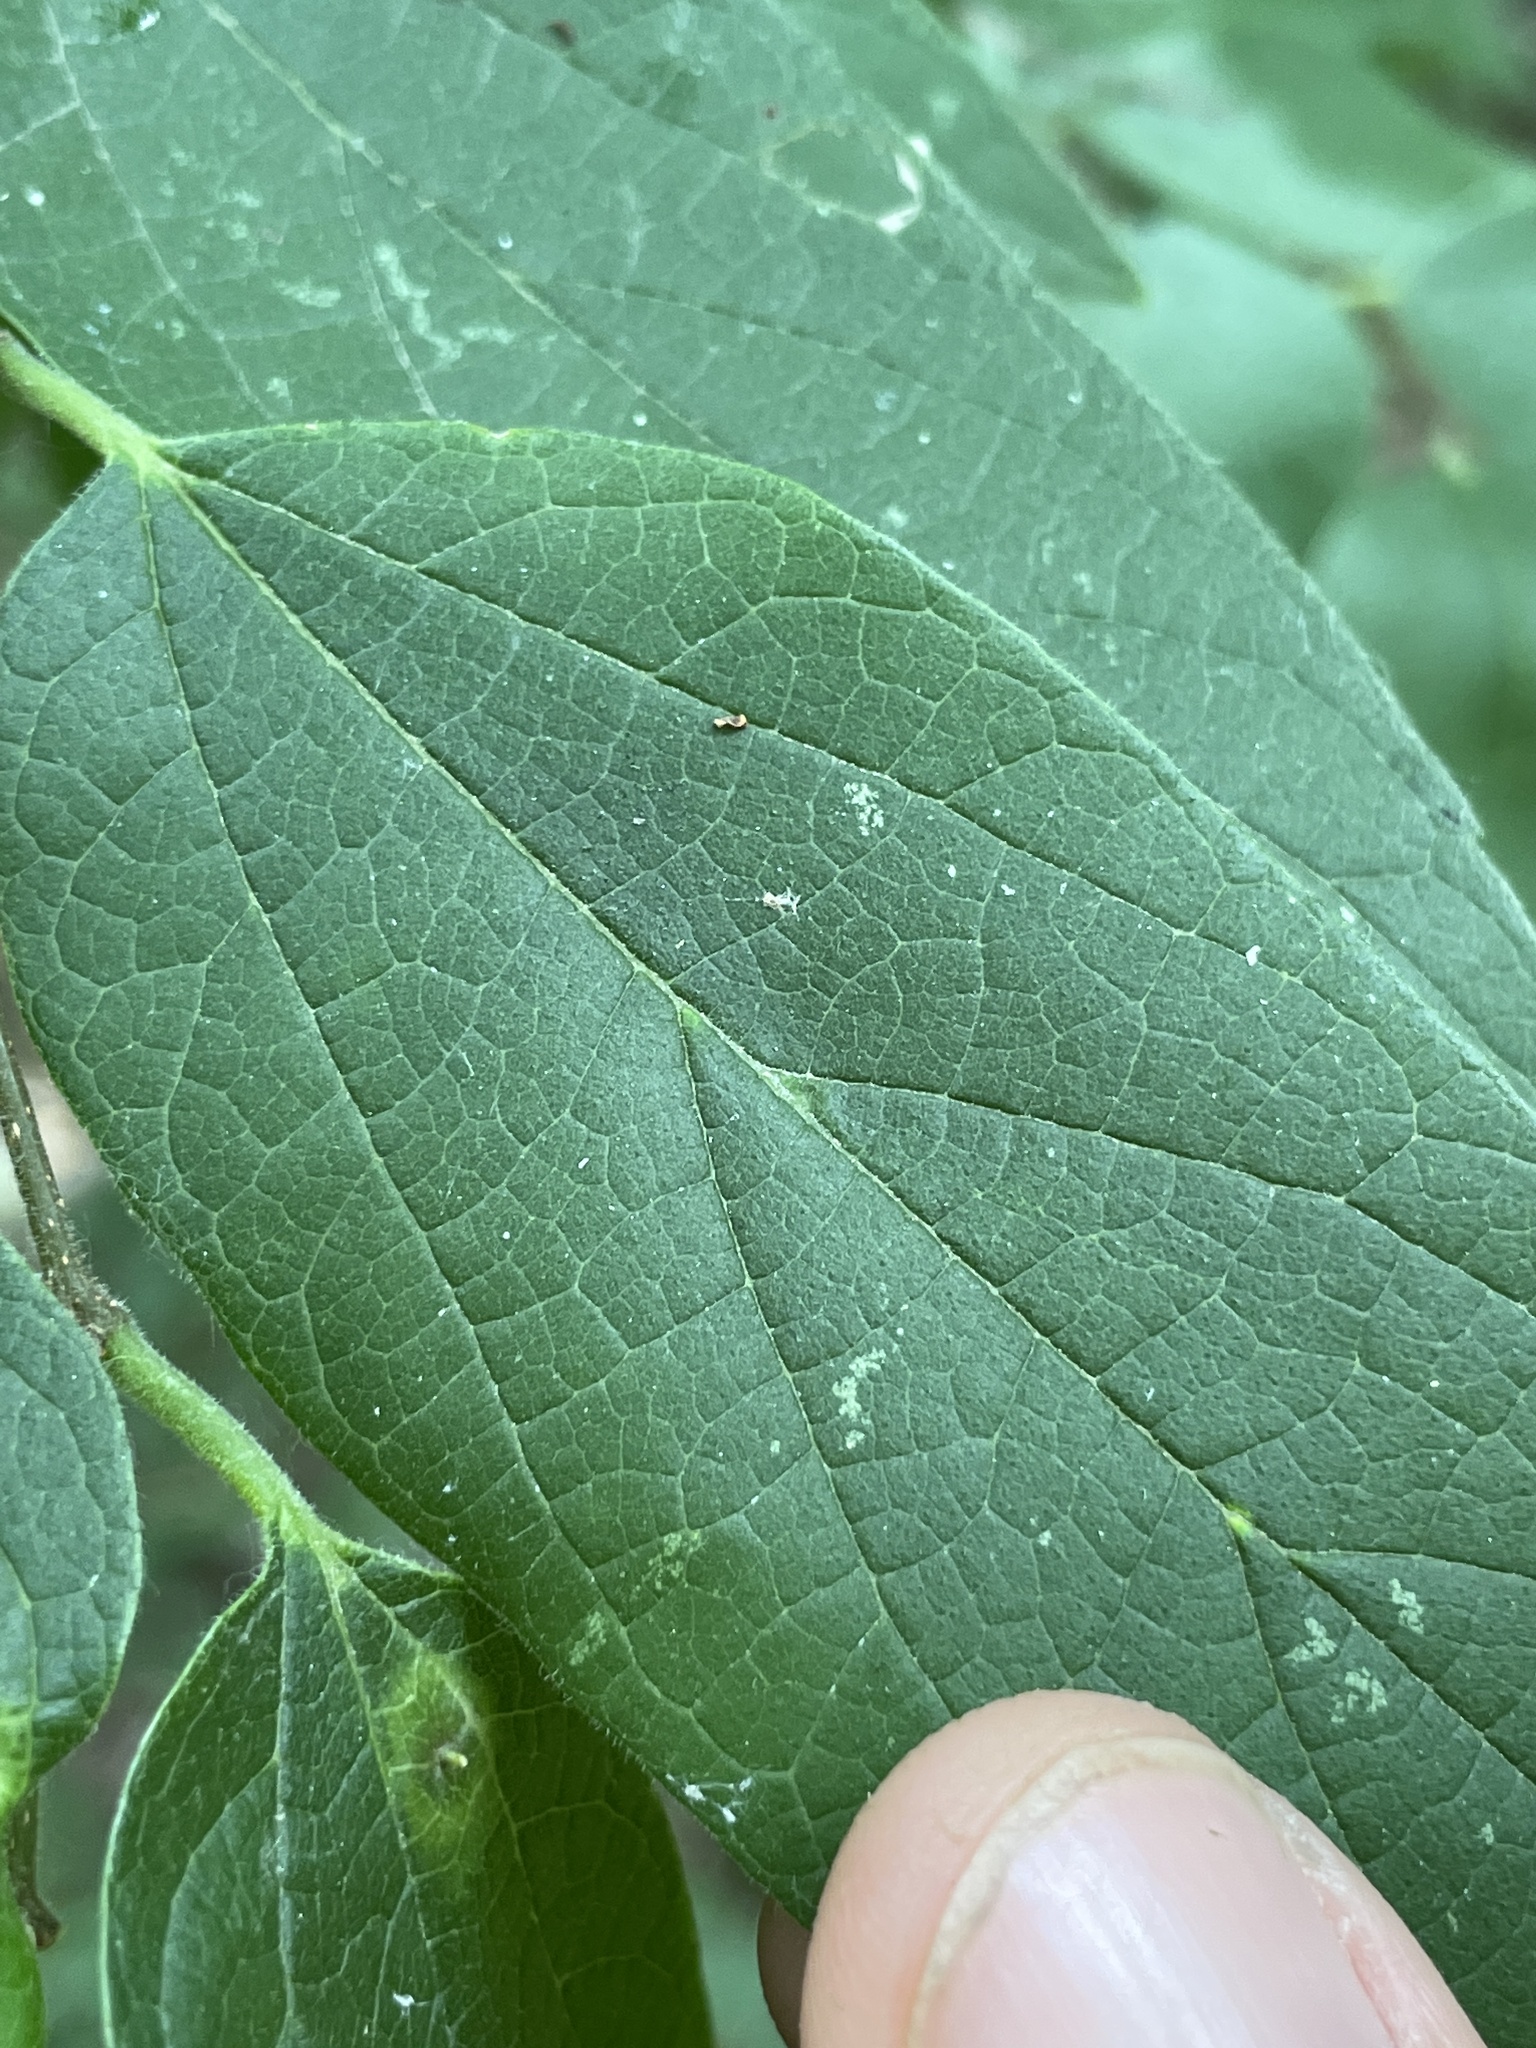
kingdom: Animalia
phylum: Arthropoda
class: Insecta
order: Diptera
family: Cecidomyiidae
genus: Celticecis
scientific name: Celticecis pubescens
